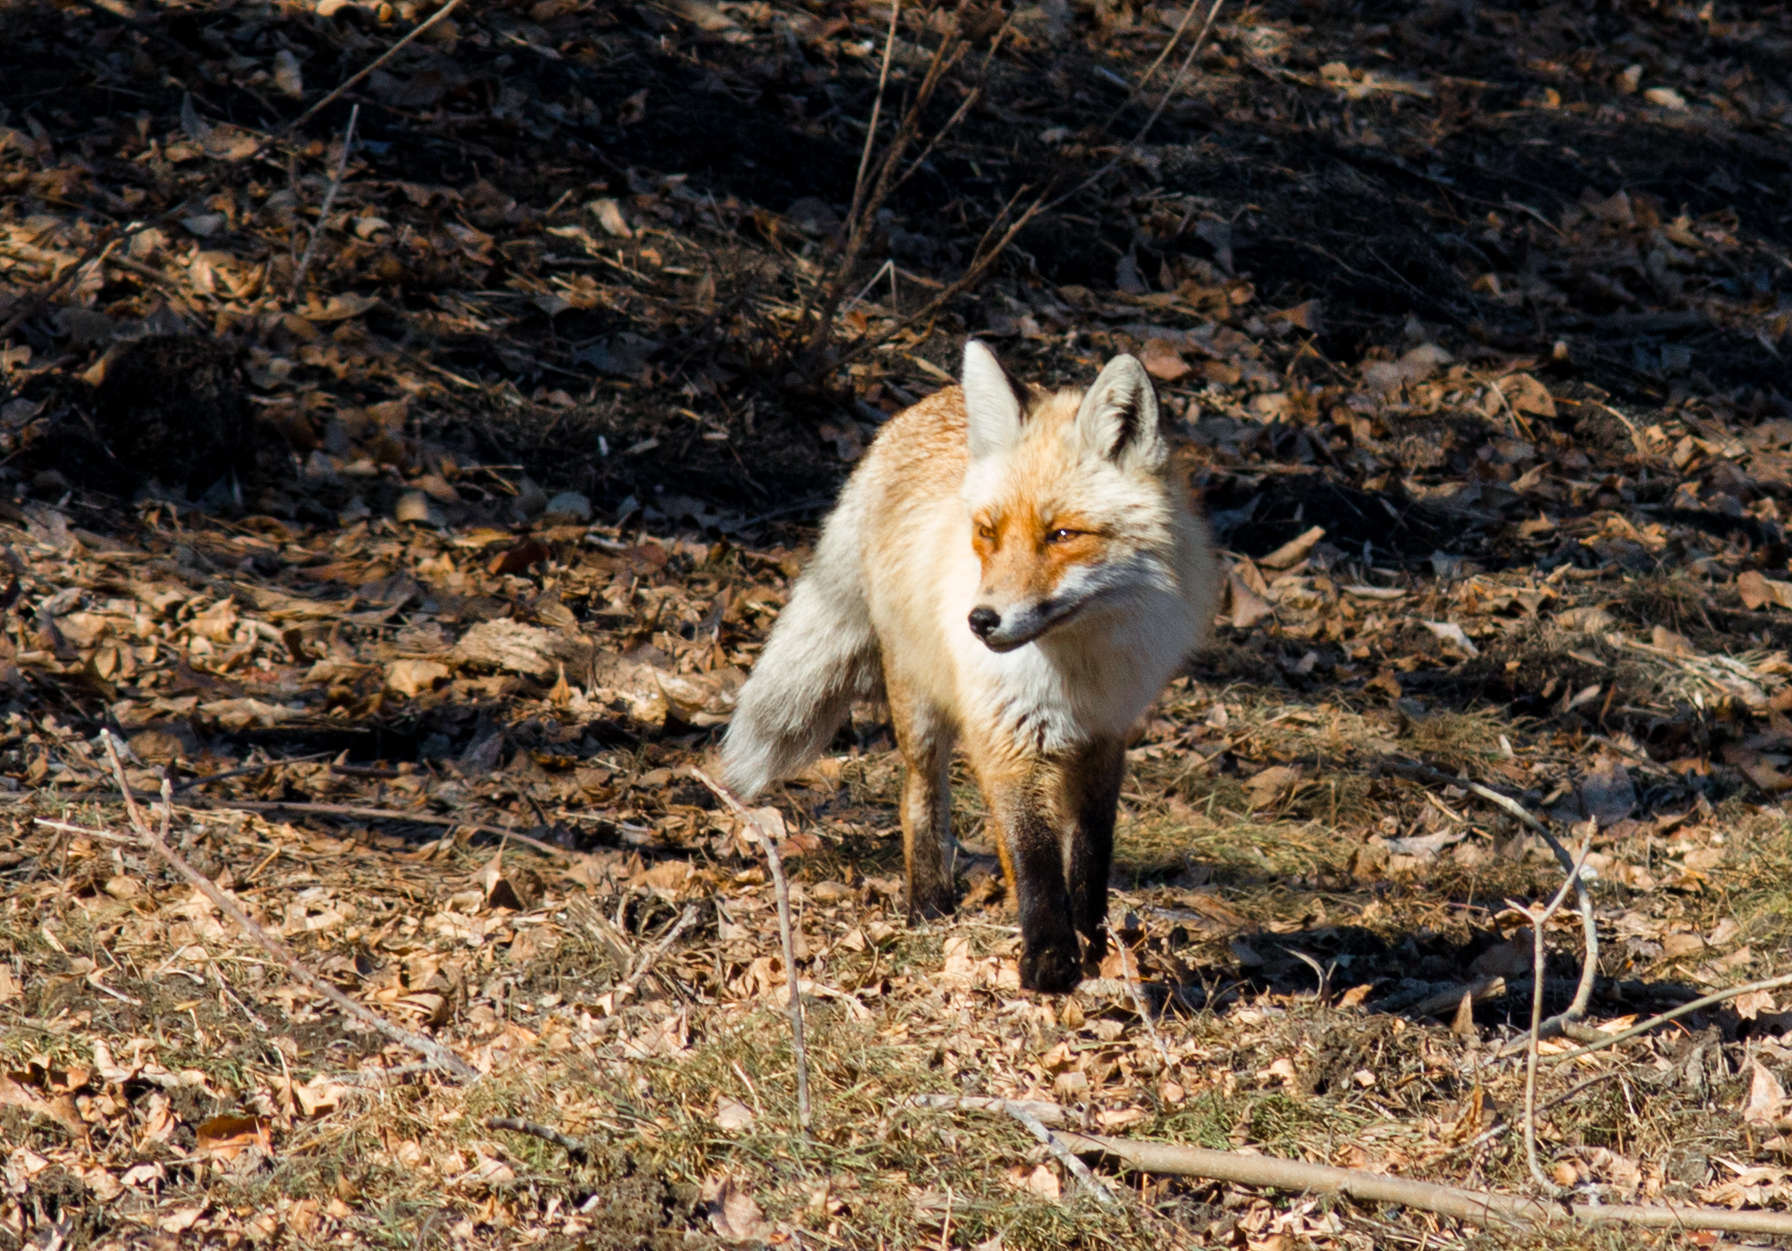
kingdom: Animalia
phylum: Chordata
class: Mammalia
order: Carnivora
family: Canidae
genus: Vulpes
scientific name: Vulpes vulpes
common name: Red fox
